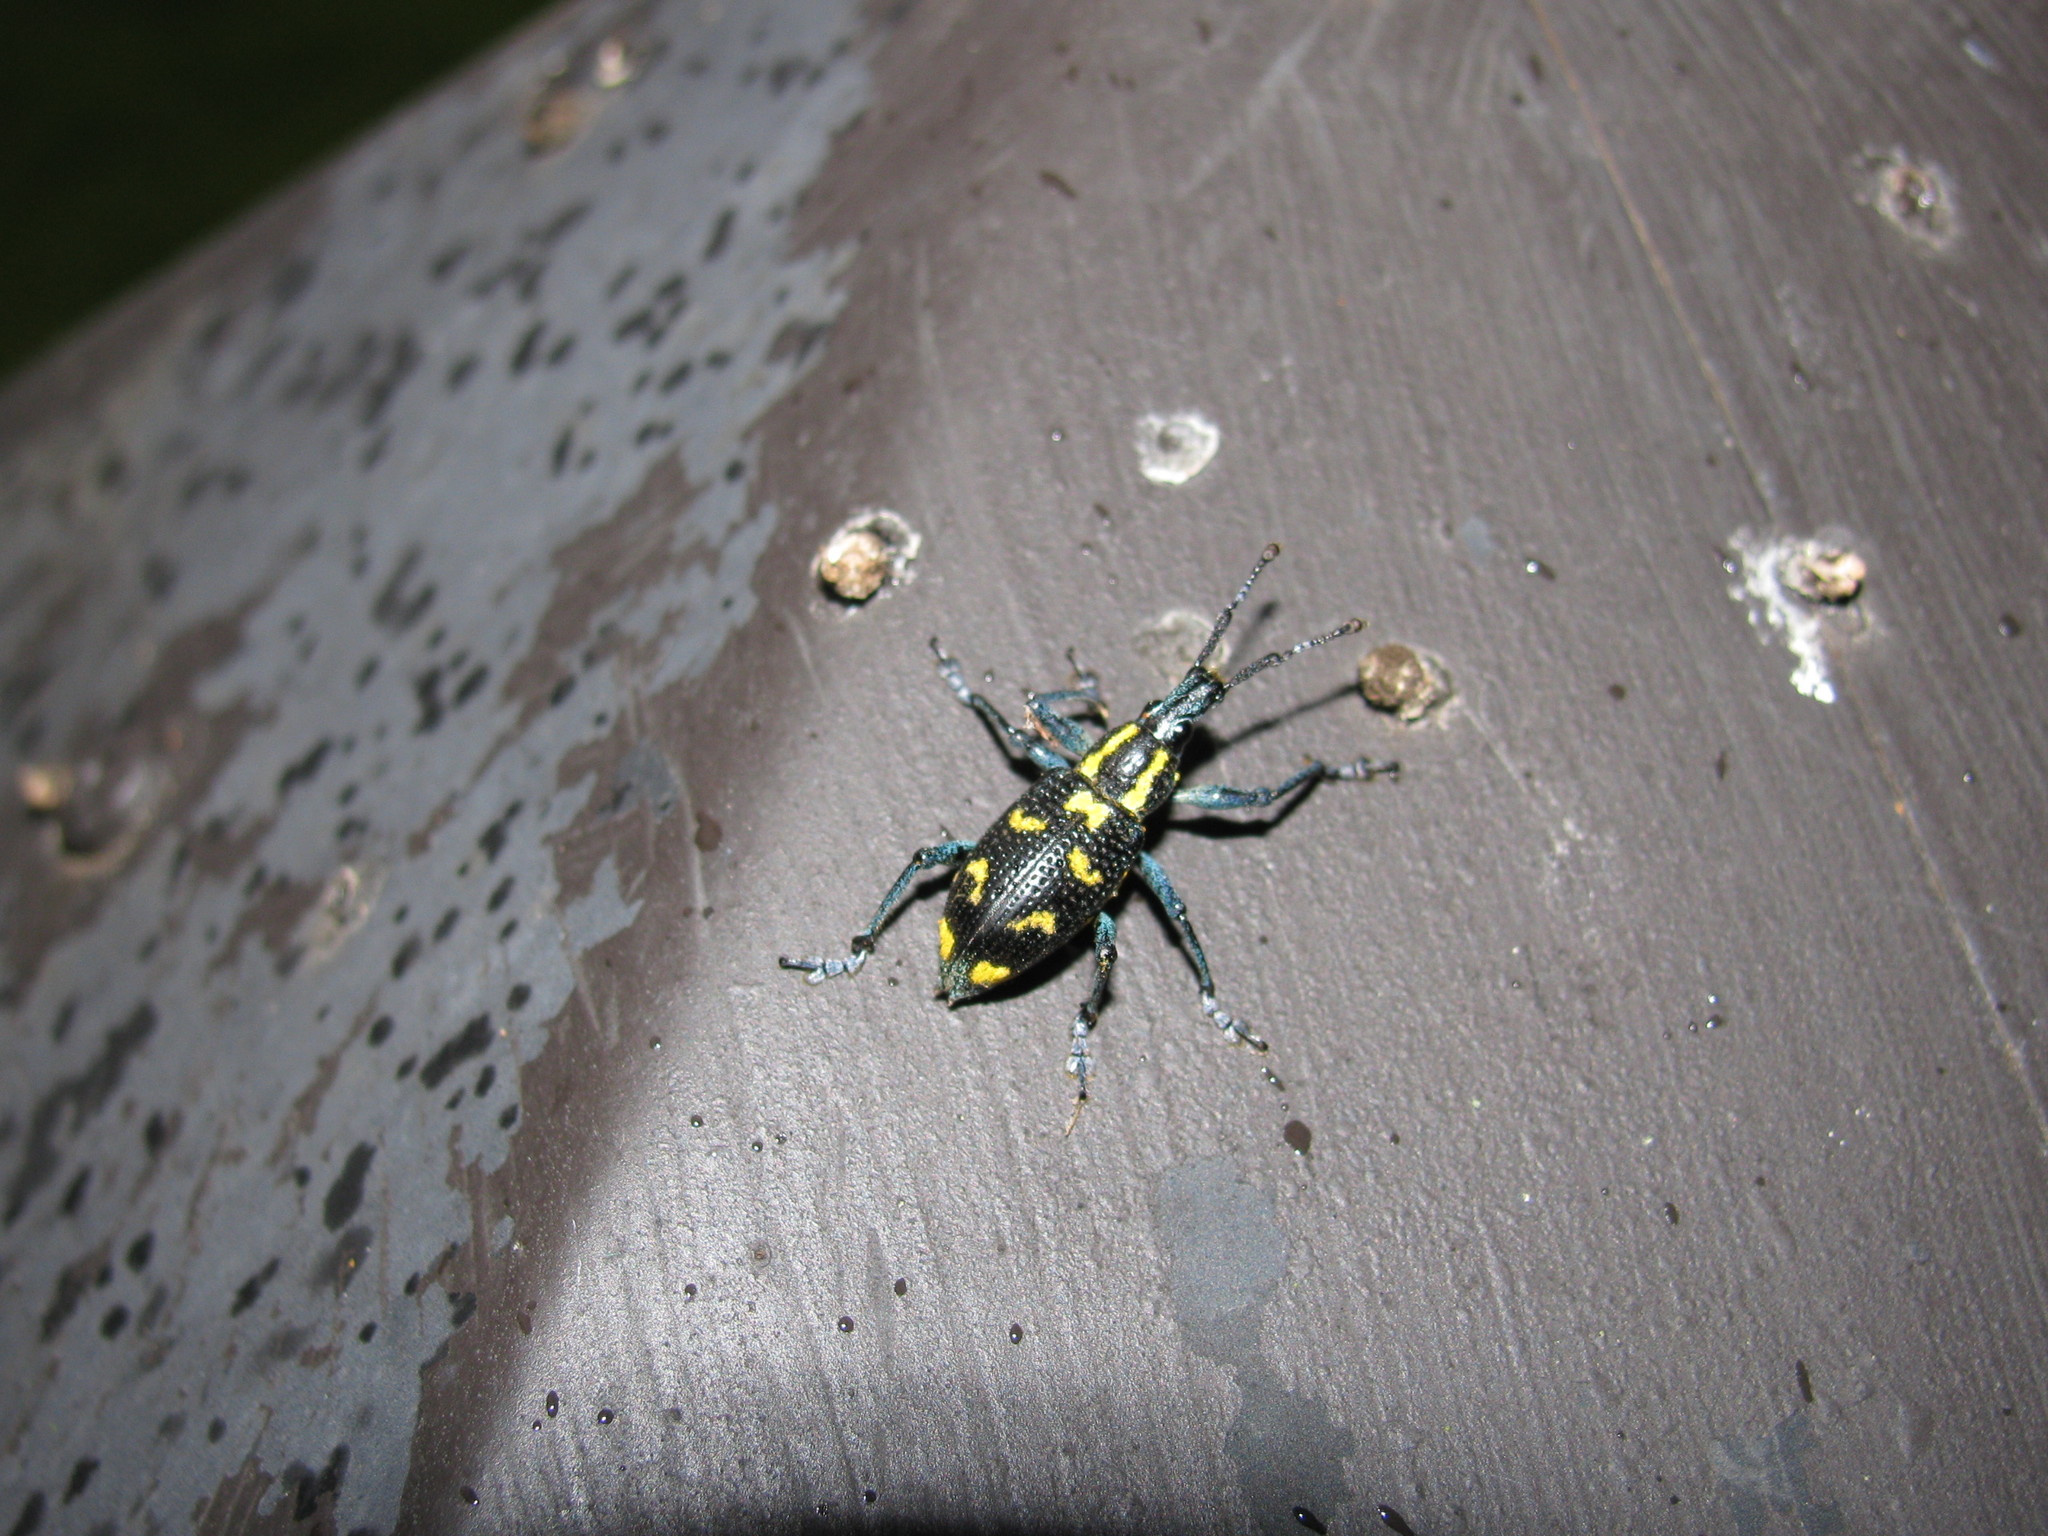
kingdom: Animalia
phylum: Arthropoda
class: Insecta
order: Coleoptera
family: Curculionidae
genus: Exophthalmus
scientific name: Exophthalmus nicaraguensis
